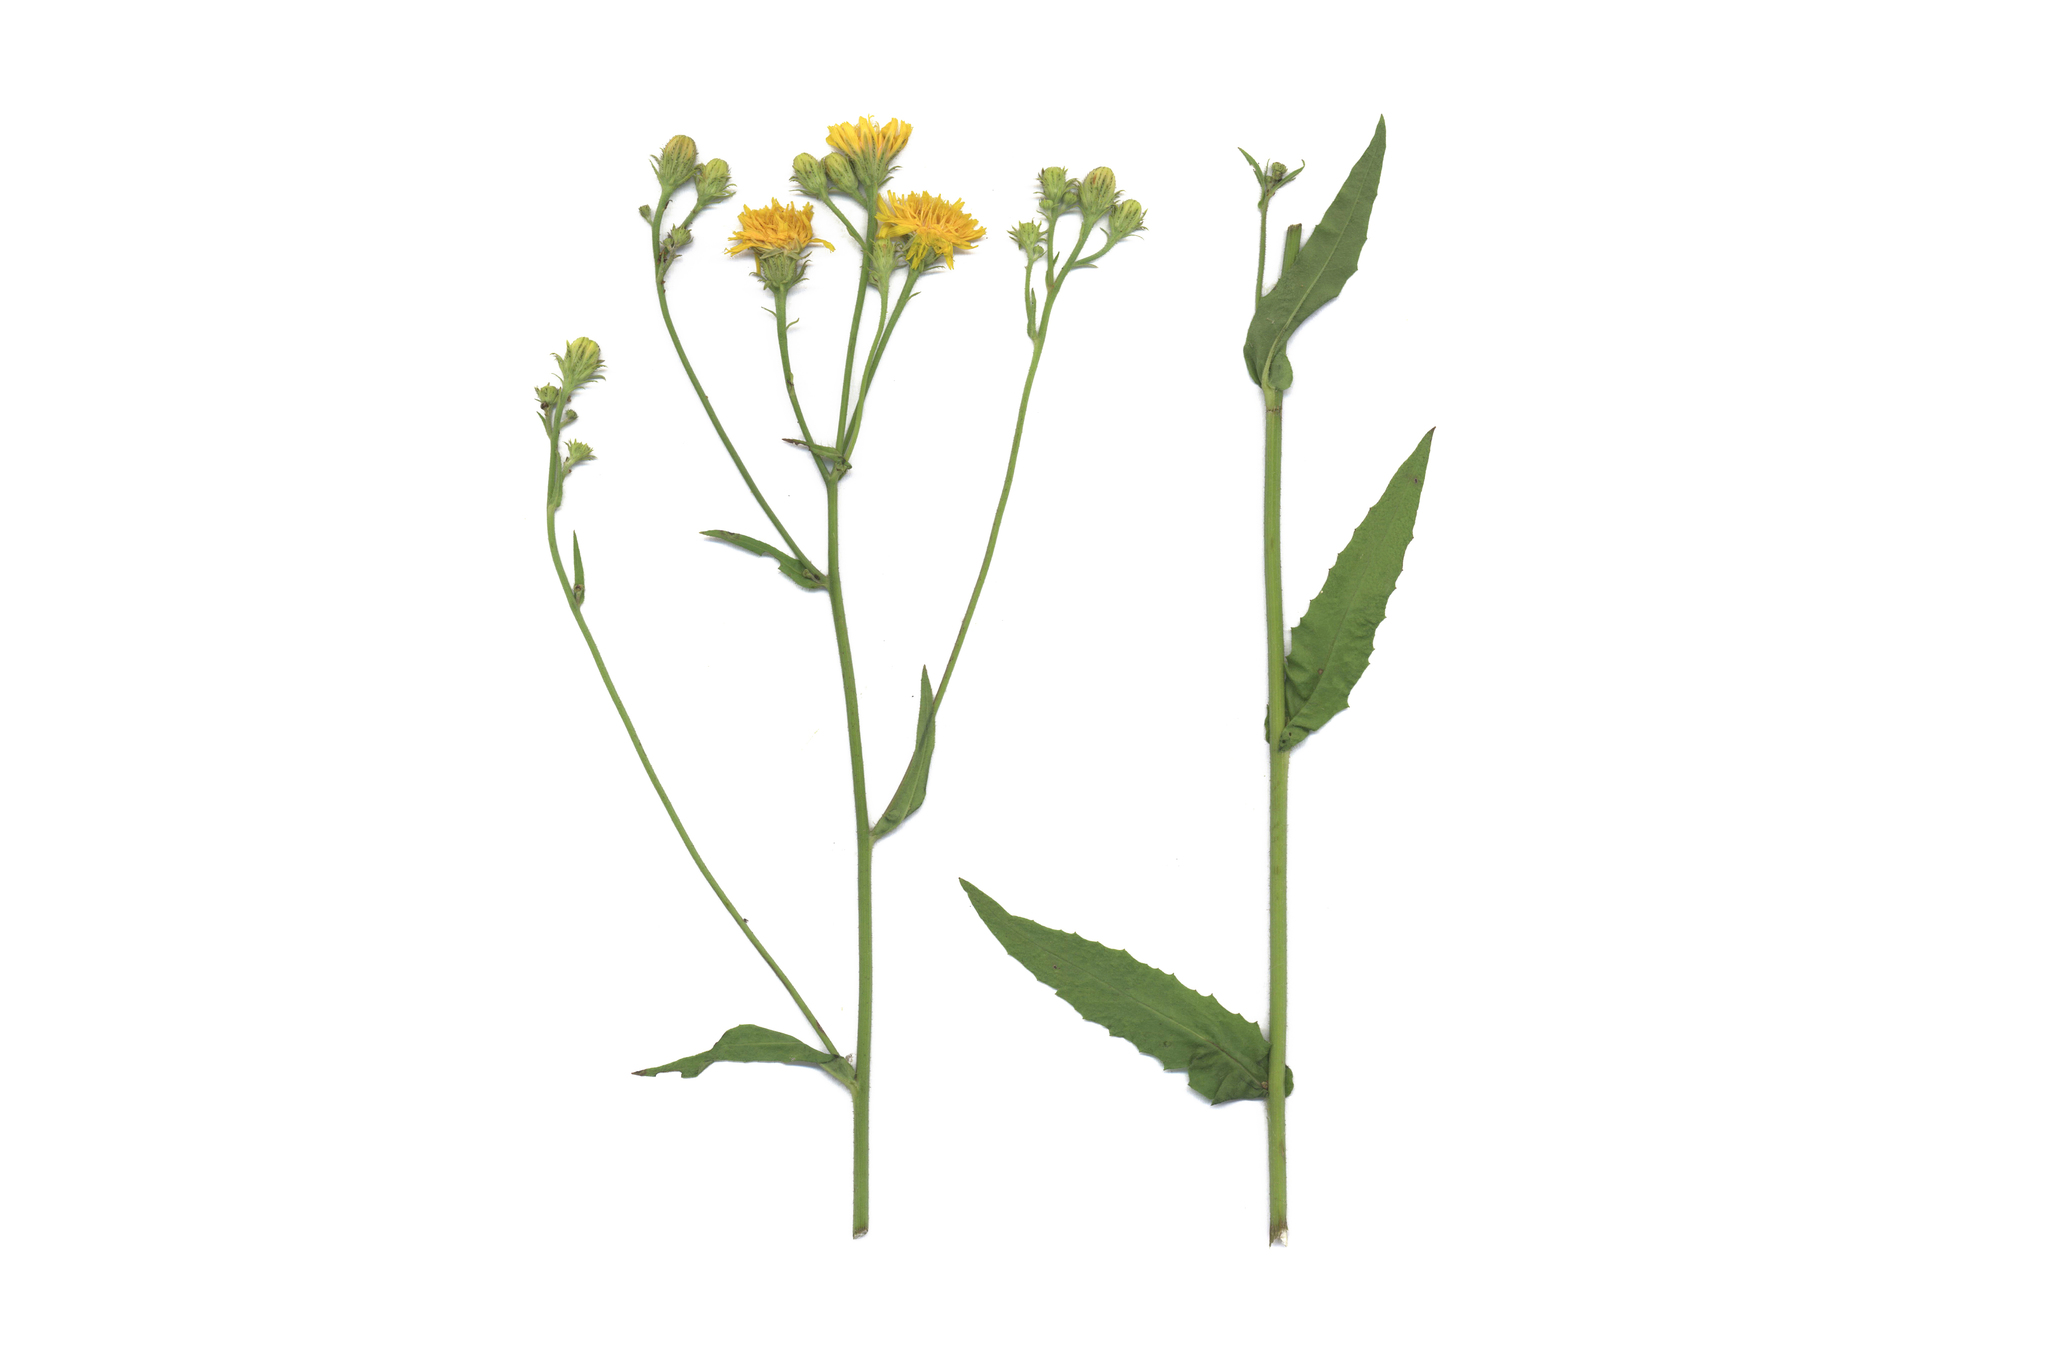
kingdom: Plantae
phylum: Tracheophyta
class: Magnoliopsida
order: Asterales
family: Asteraceae
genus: Picris
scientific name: Picris hieracioides
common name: Hawkweed oxtongue
